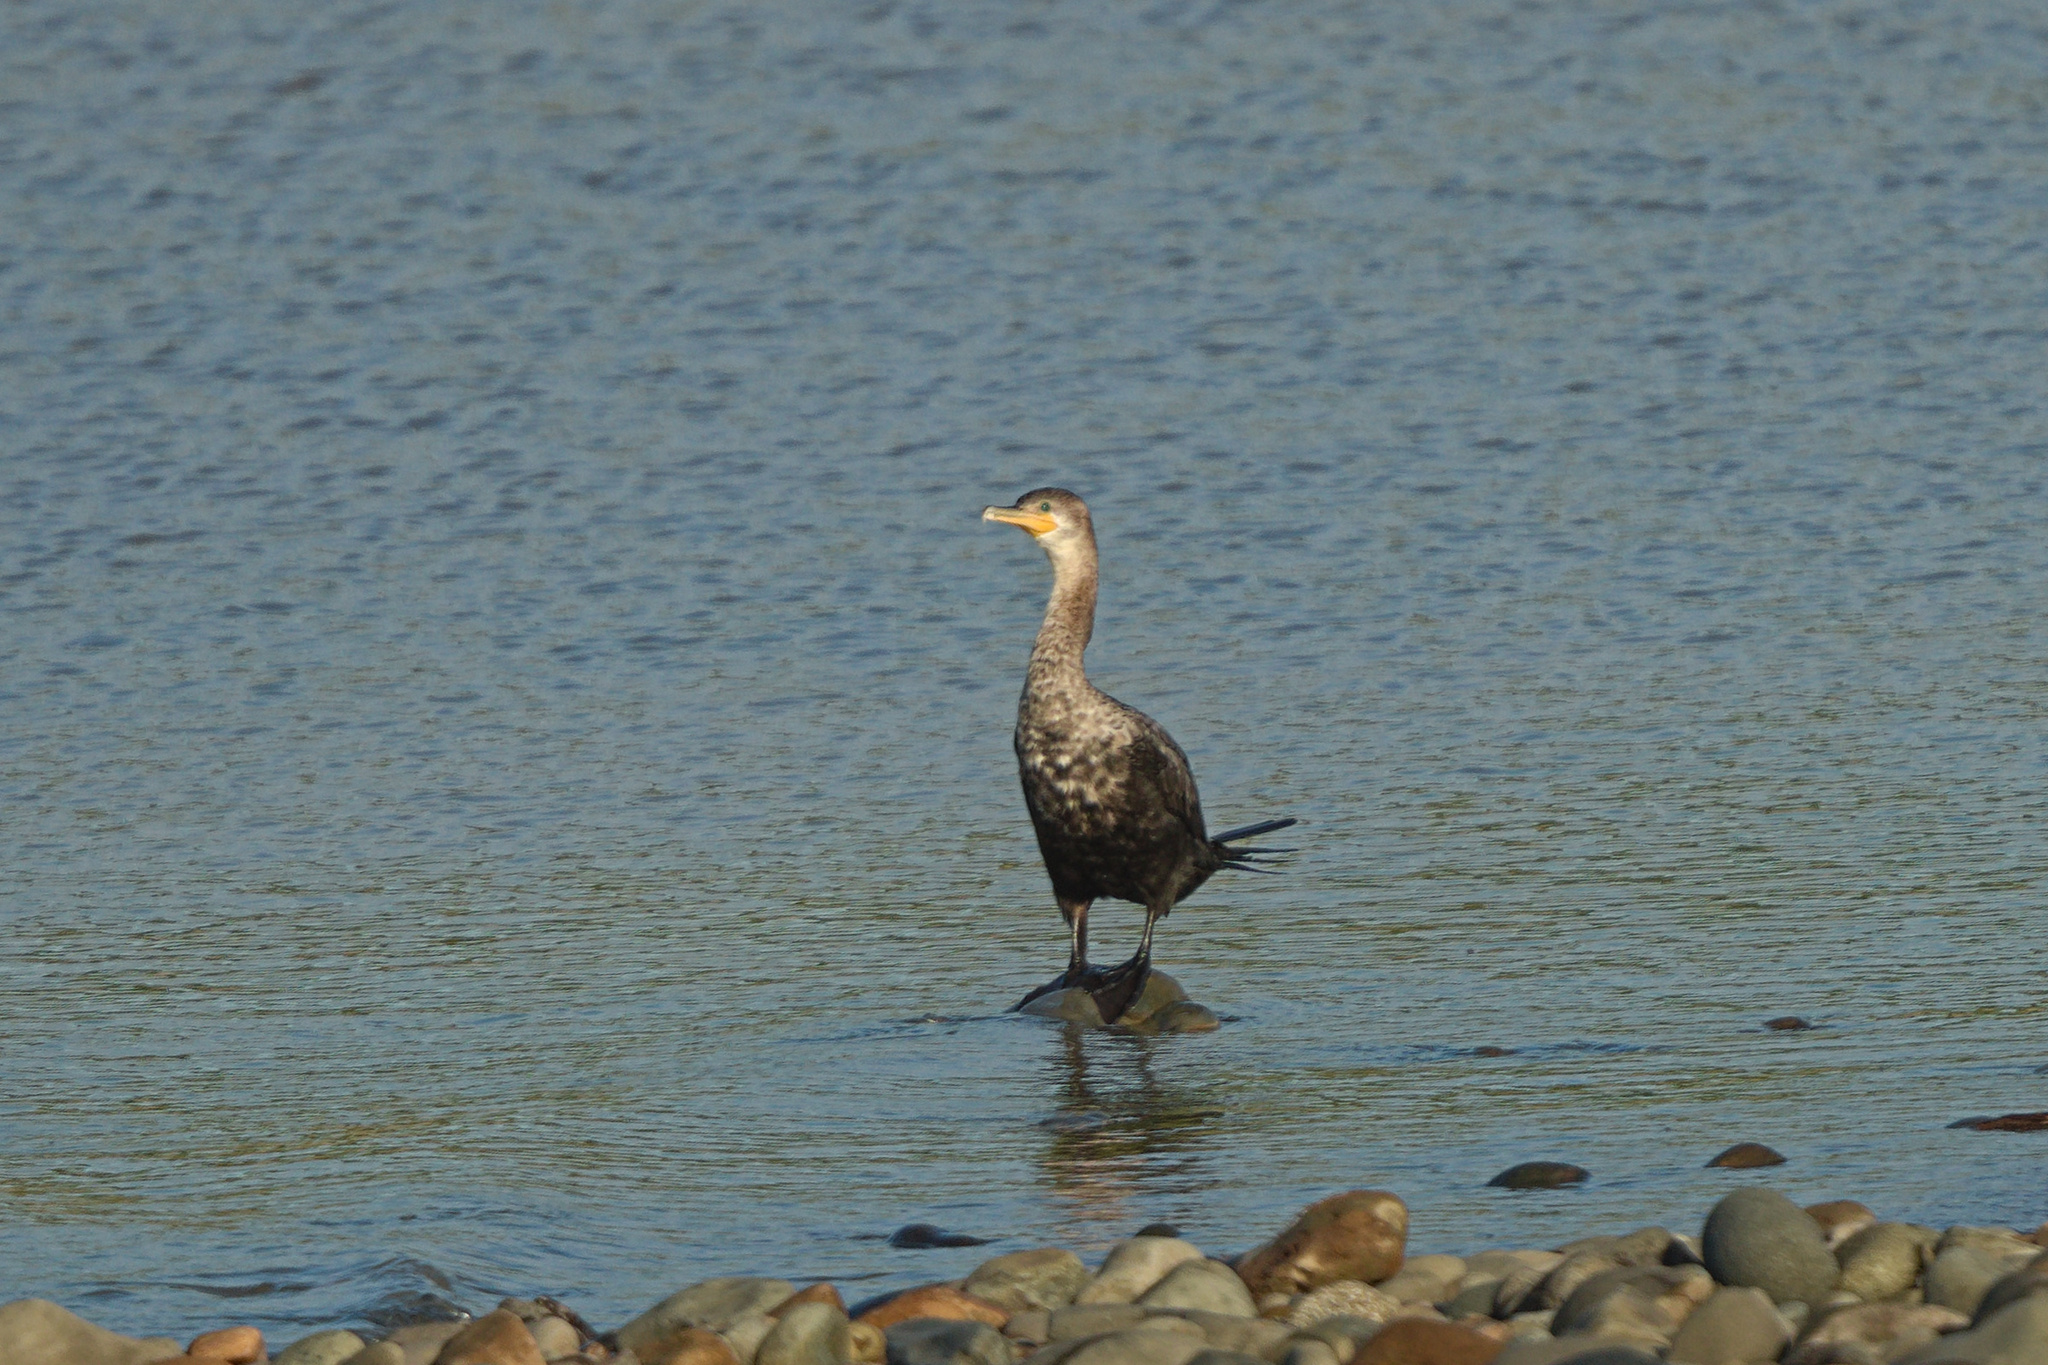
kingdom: Animalia
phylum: Chordata
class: Aves
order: Suliformes
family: Phalacrocoracidae
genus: Phalacrocorax
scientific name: Phalacrocorax brasilianus
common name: Neotropic cormorant
